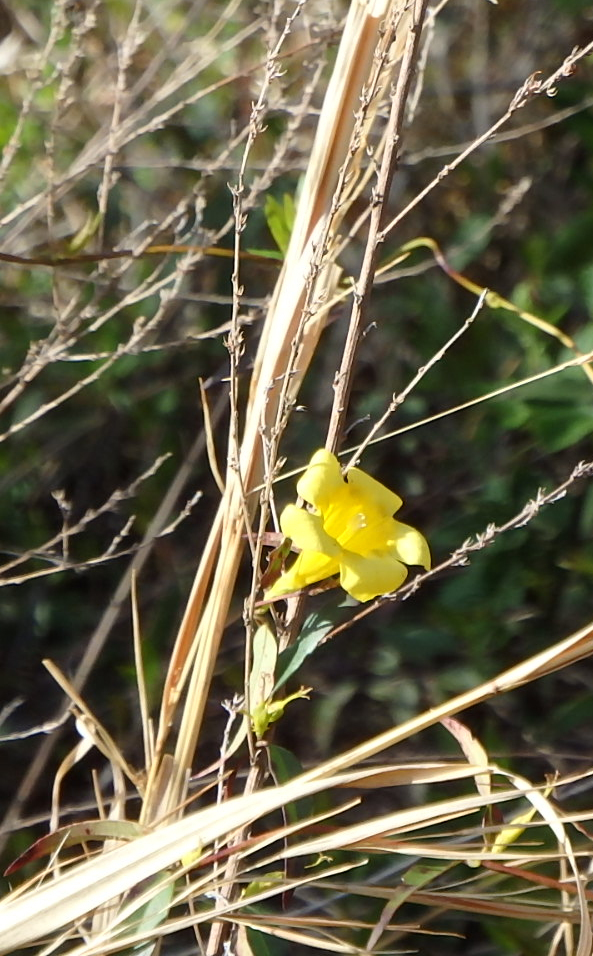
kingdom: Plantae
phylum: Tracheophyta
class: Magnoliopsida
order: Gentianales
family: Gelsemiaceae
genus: Gelsemium
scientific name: Gelsemium sempervirens
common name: Carolina-jasmine
